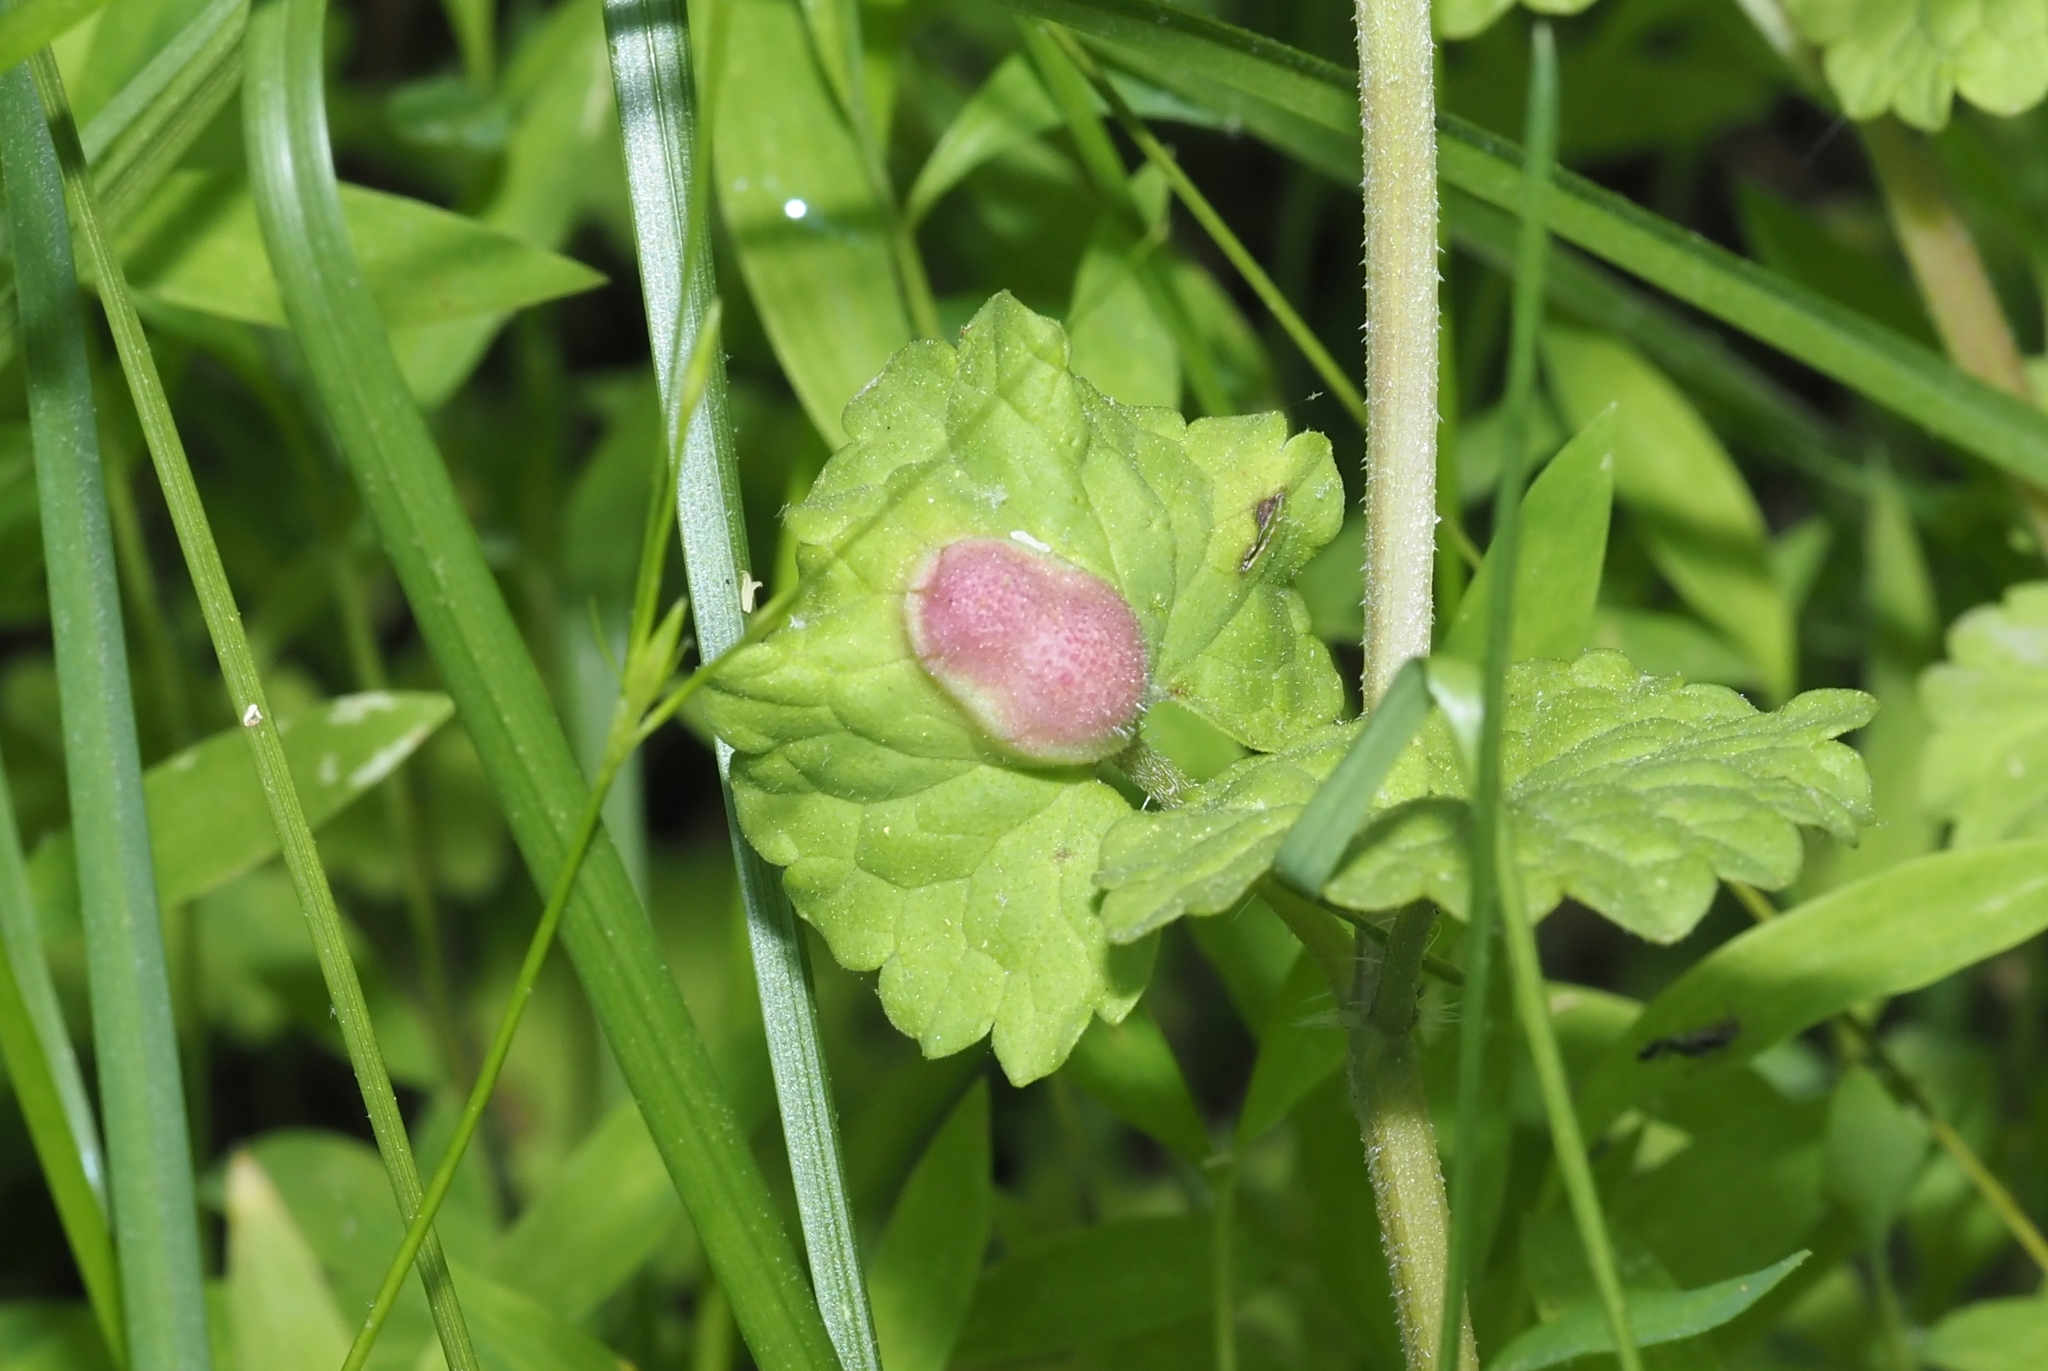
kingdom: Animalia
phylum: Arthropoda
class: Insecta
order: Hymenoptera
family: Cynipidae
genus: Liposthenes
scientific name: Liposthenes glechomae
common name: Gall wasp
